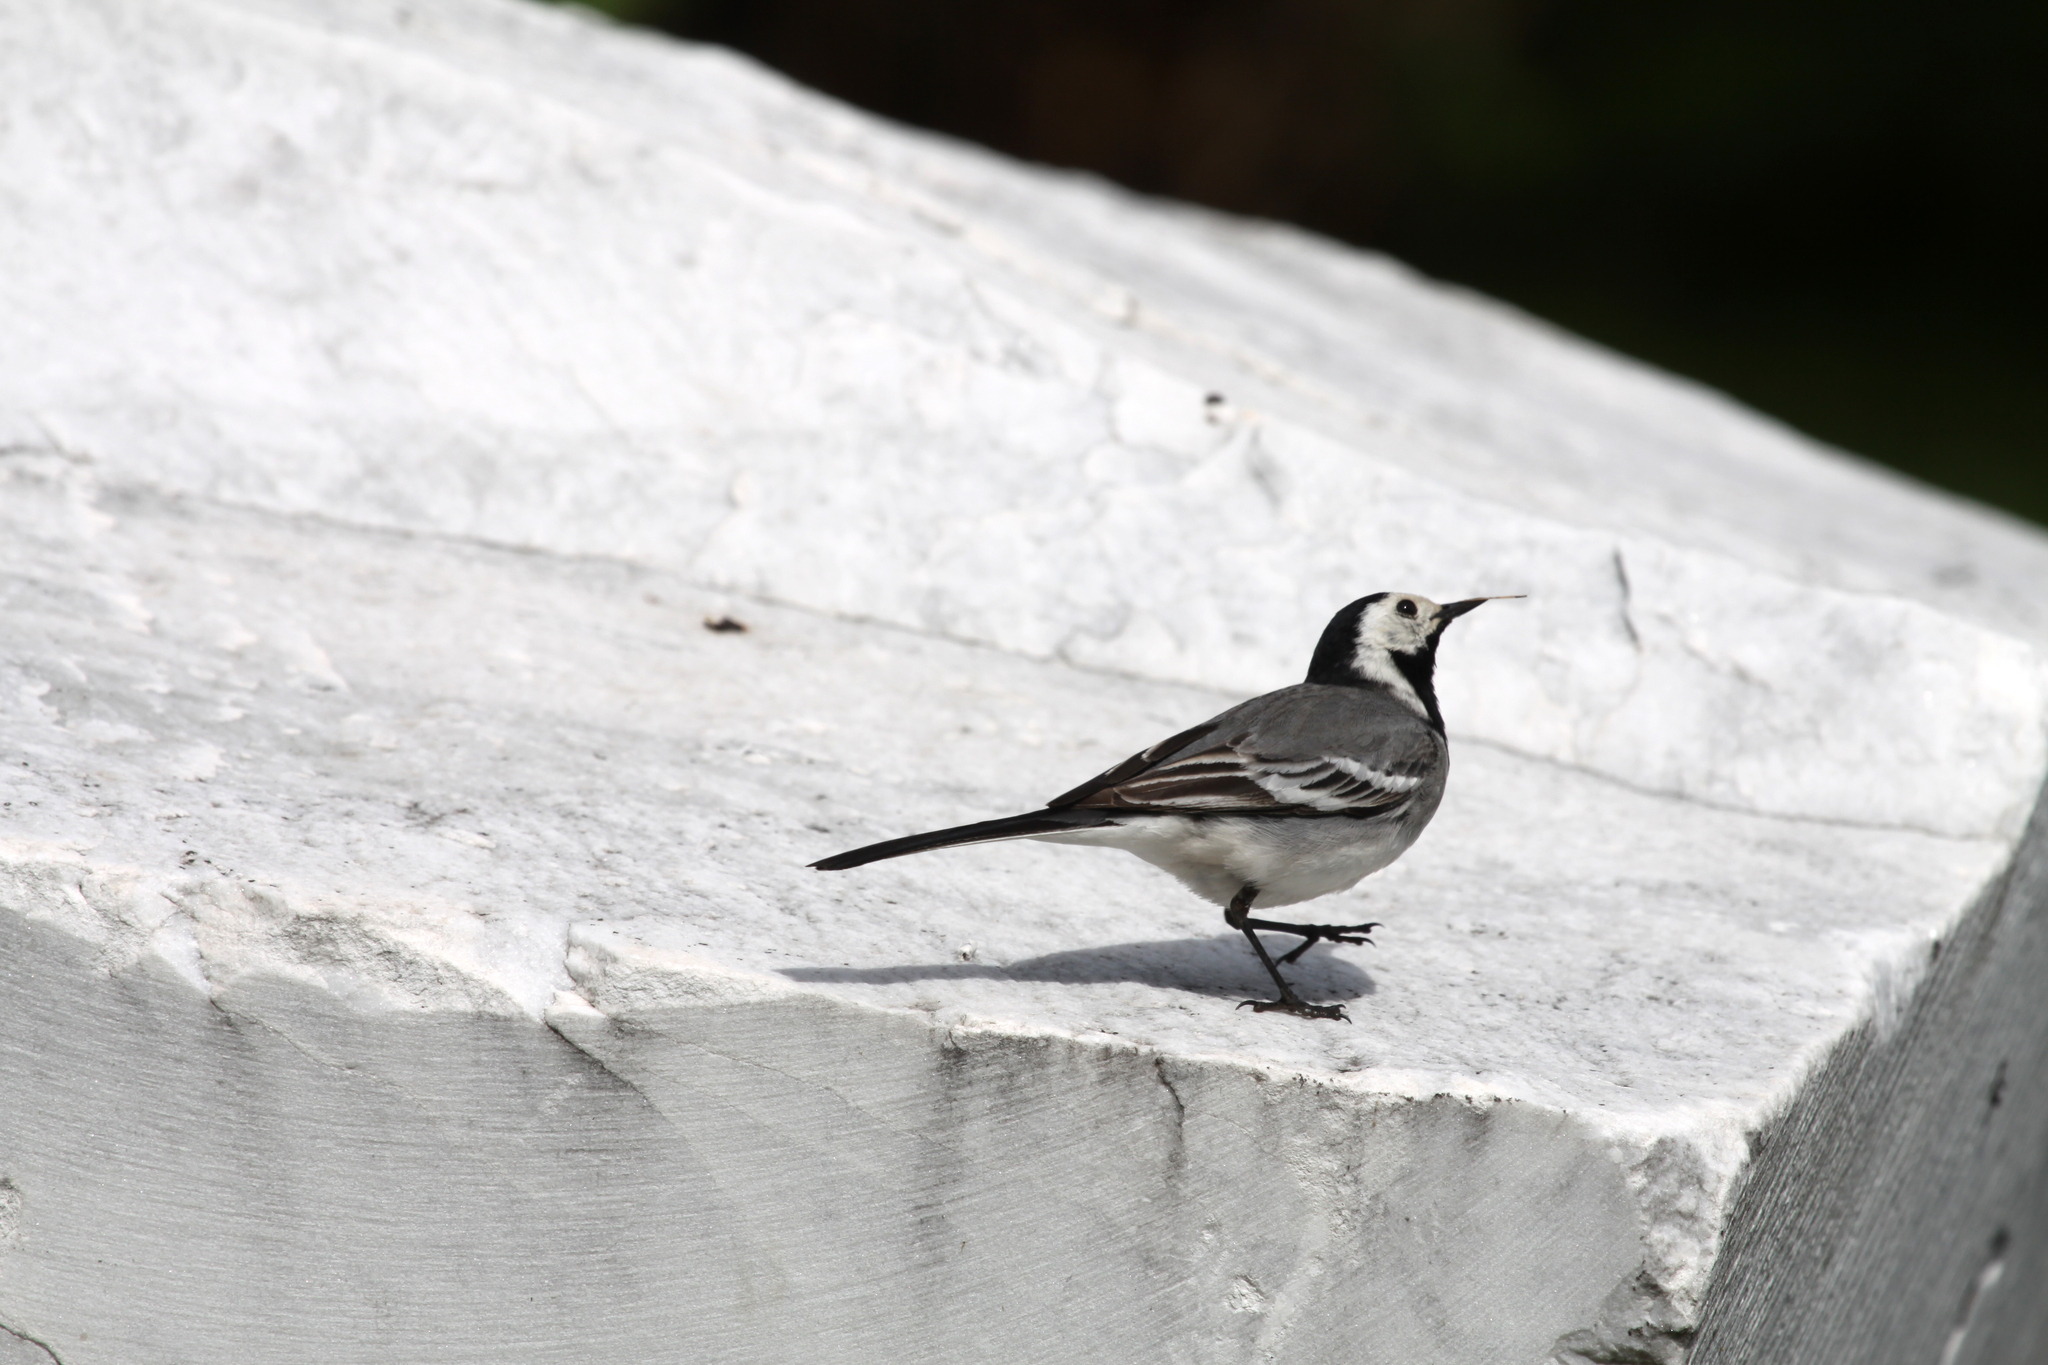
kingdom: Animalia
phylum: Chordata
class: Aves
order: Passeriformes
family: Motacillidae
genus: Motacilla
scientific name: Motacilla alba
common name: White wagtail
